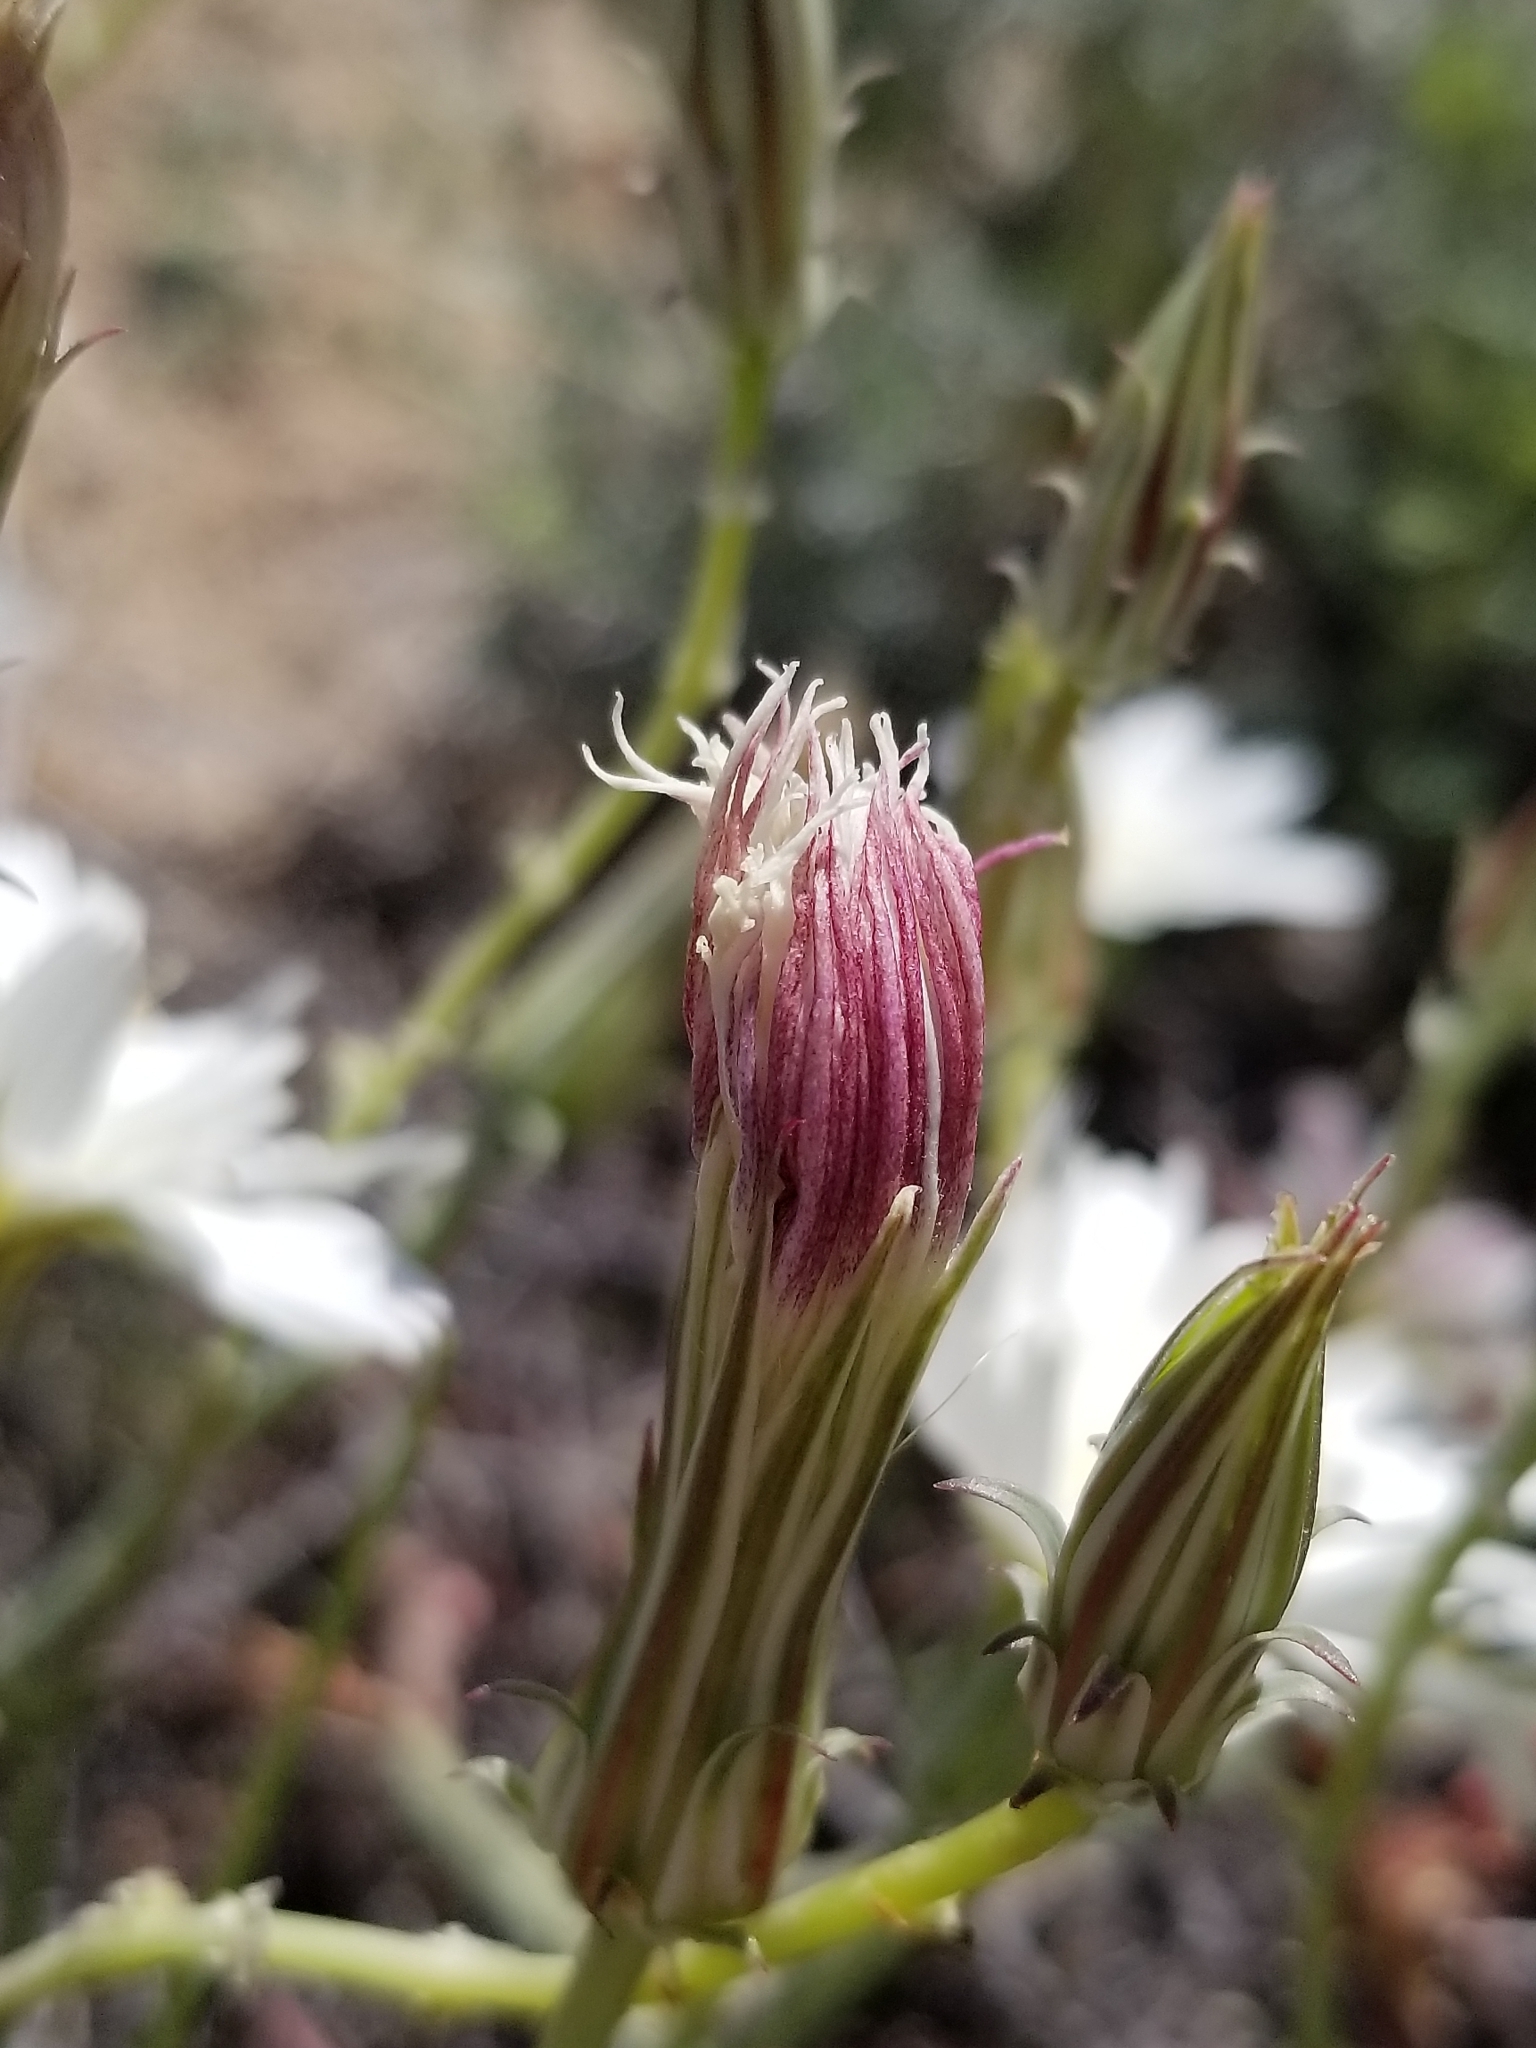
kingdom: Plantae
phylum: Tracheophyta
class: Magnoliopsida
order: Asterales
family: Asteraceae
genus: Rafinesquia
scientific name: Rafinesquia neomexicana
